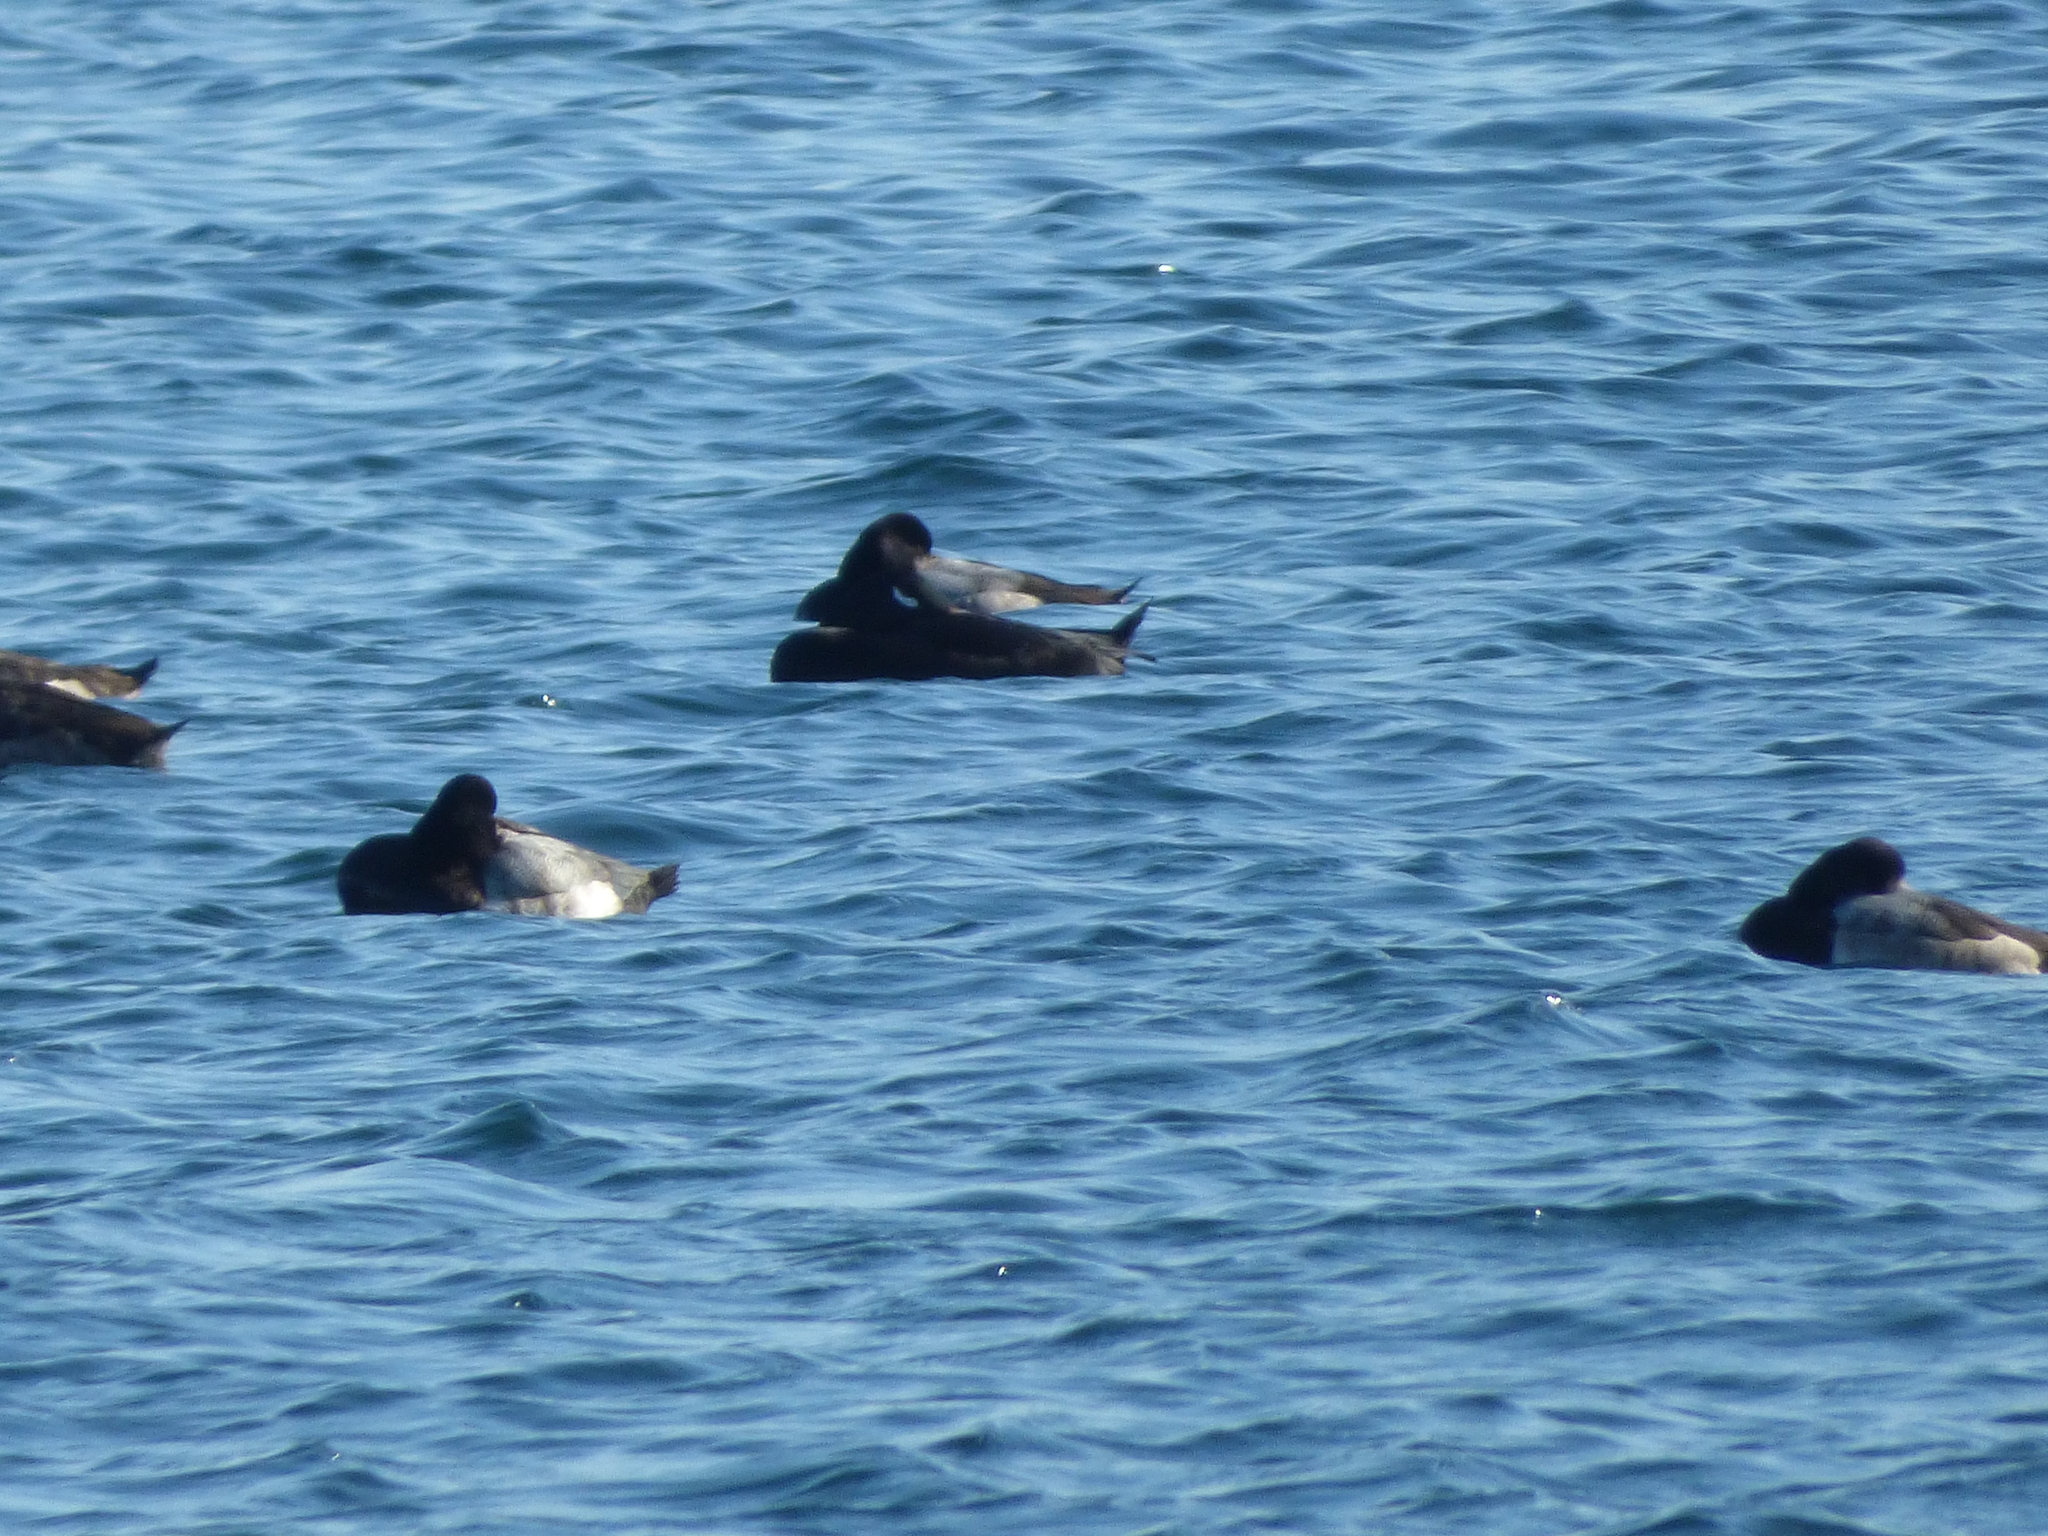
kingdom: Animalia
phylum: Chordata
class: Aves
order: Anseriformes
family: Anatidae
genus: Melanitta
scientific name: Melanitta stejnegeri
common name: Stejneger's scoter
